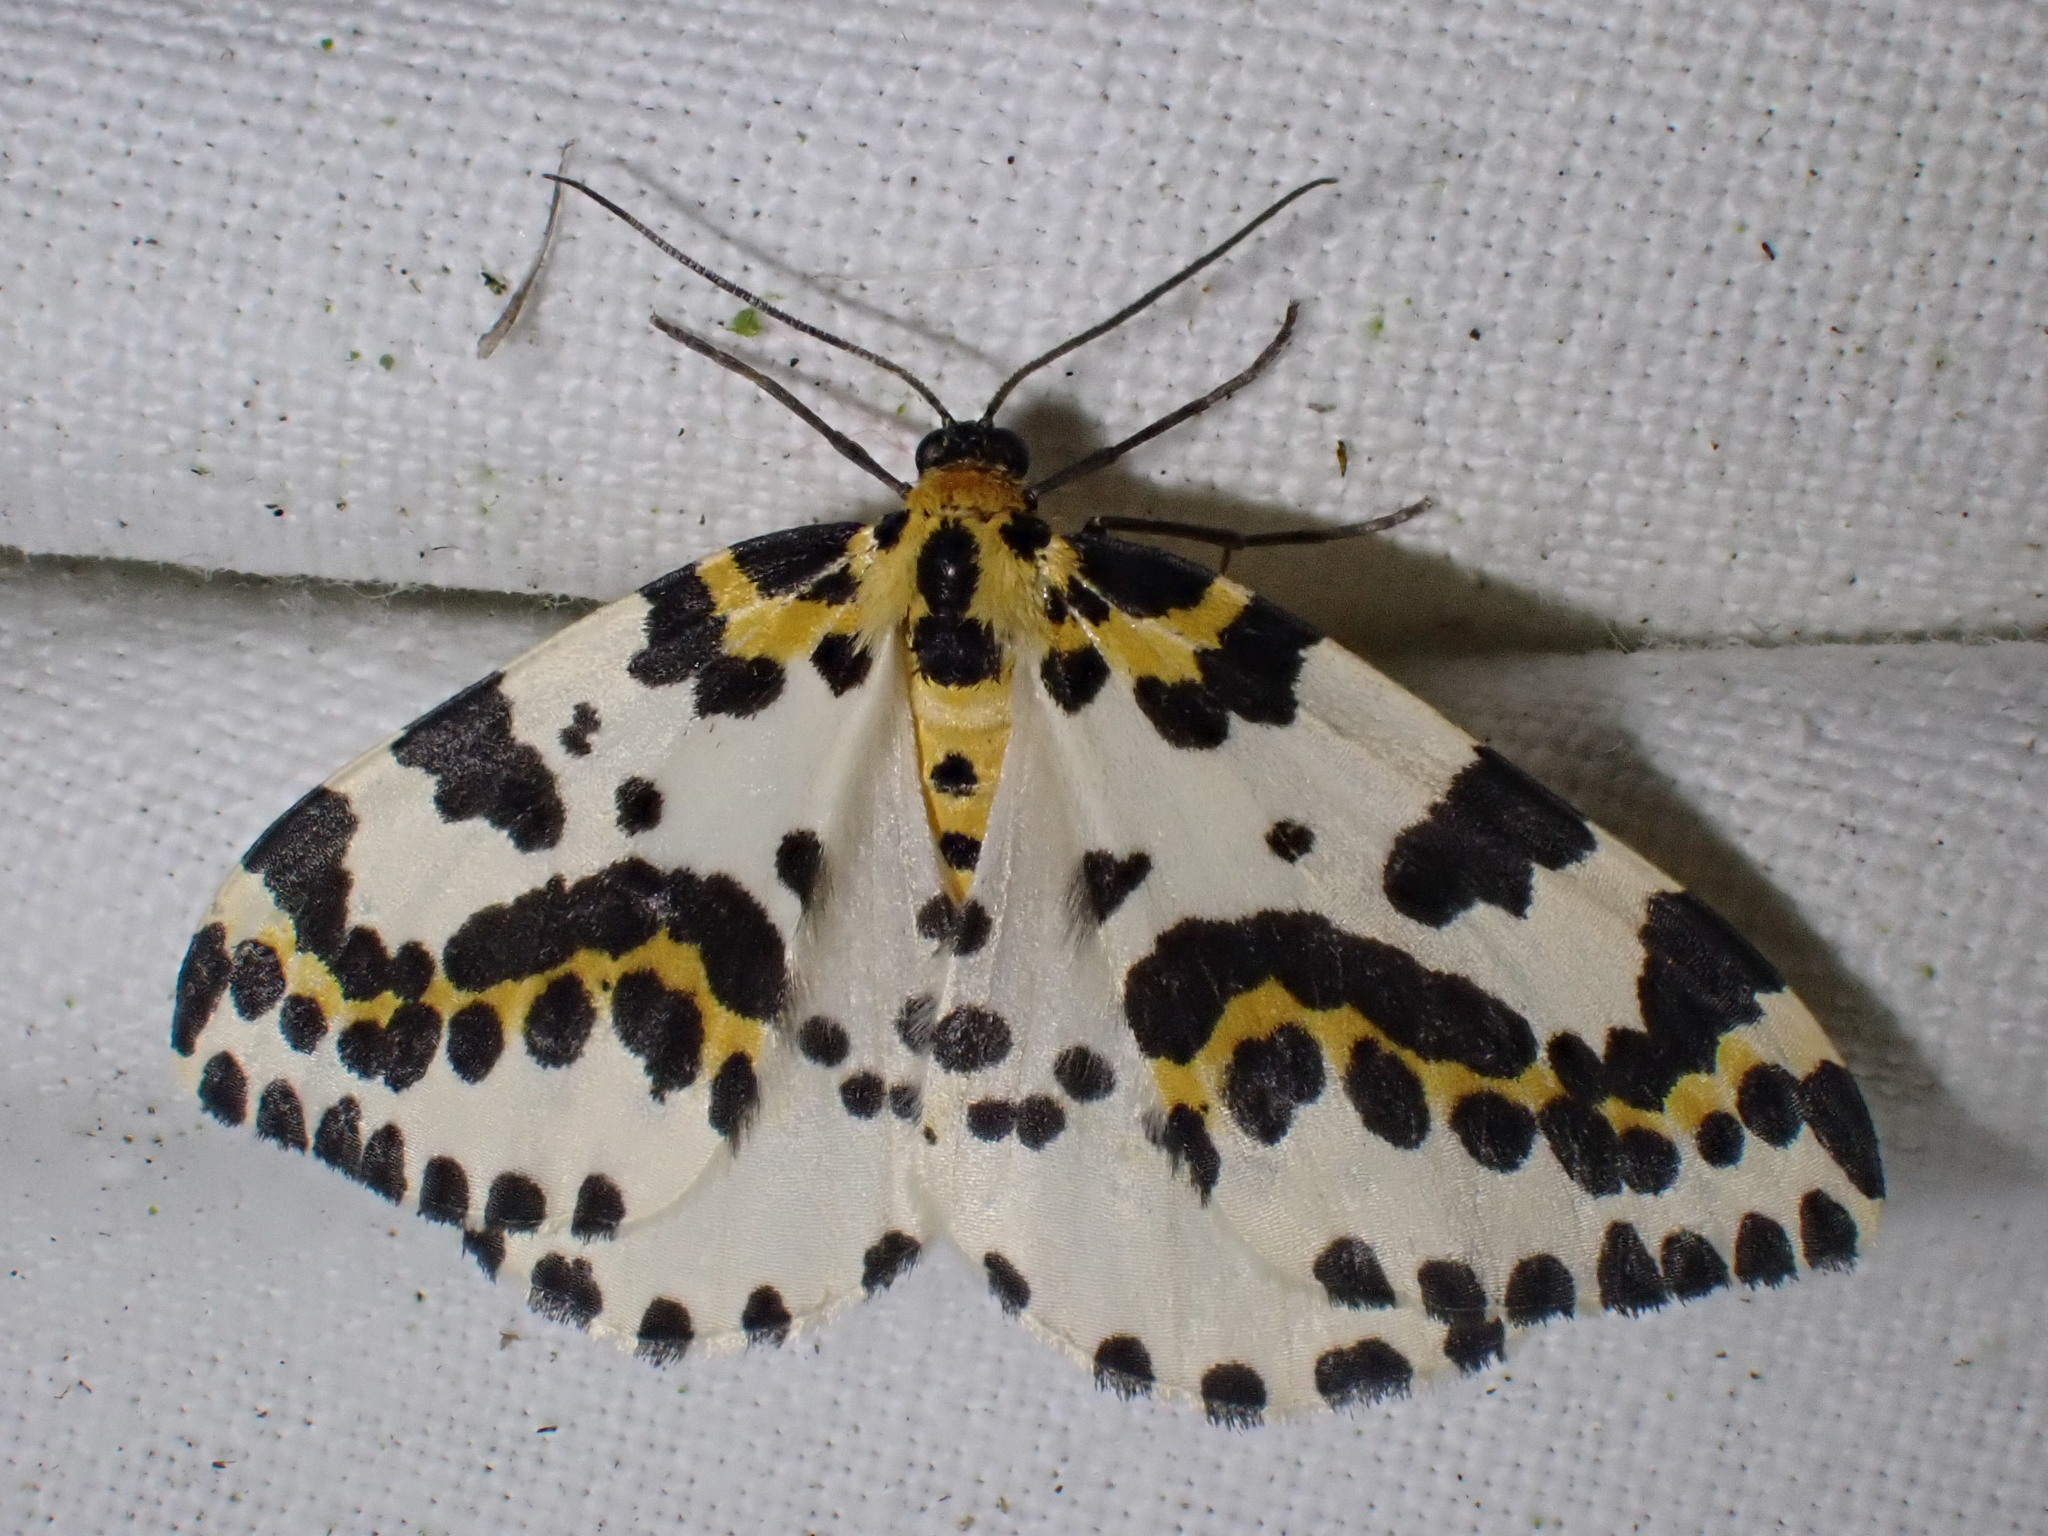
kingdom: Animalia
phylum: Arthropoda
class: Insecta
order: Lepidoptera
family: Geometridae
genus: Abraxas
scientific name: Abraxas grossulariata
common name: Magpie
